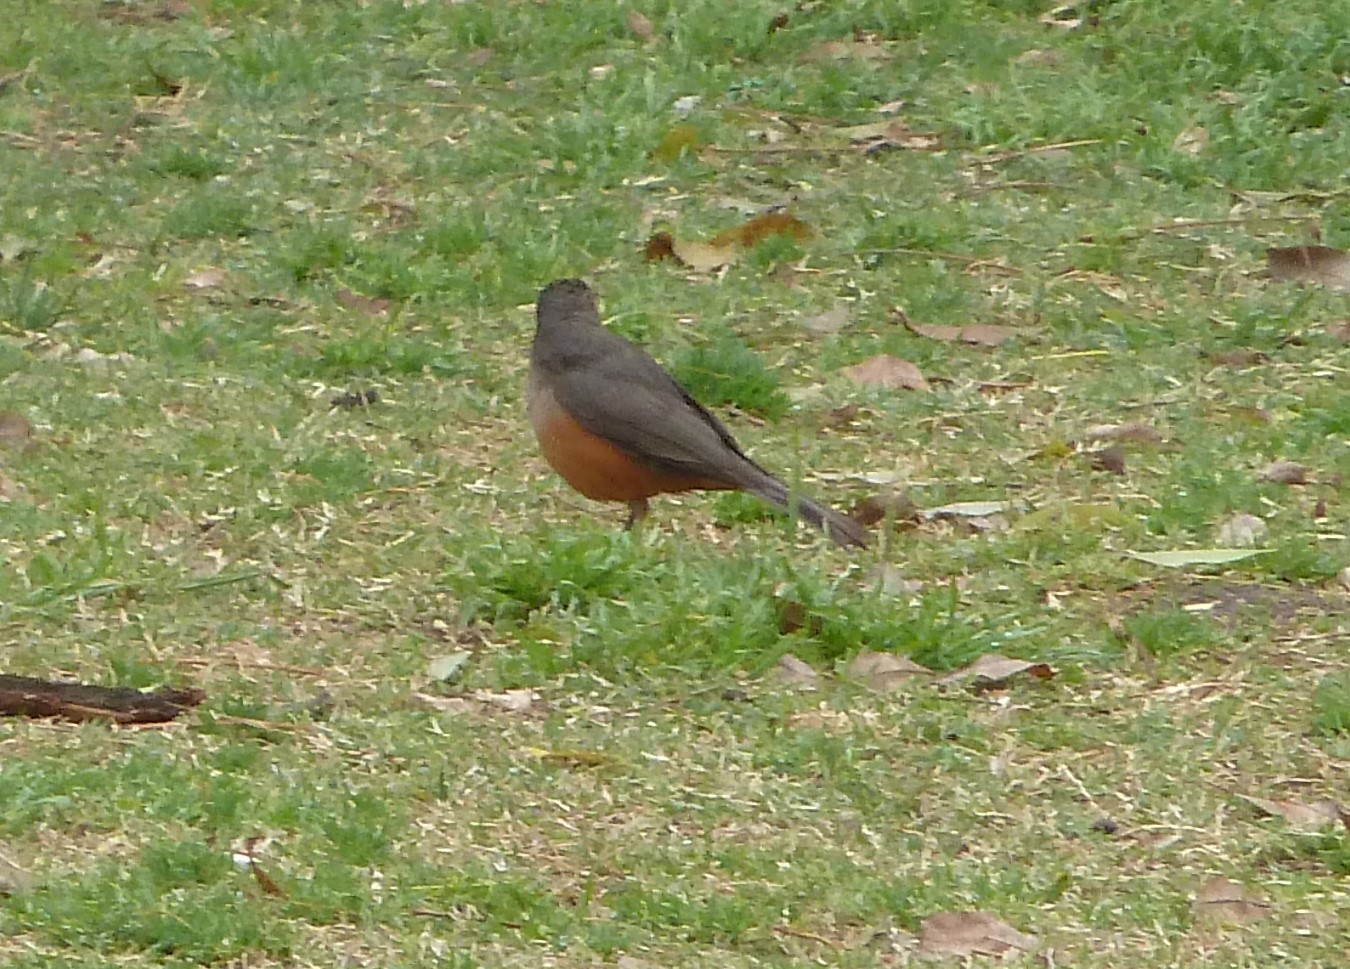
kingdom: Animalia
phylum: Chordata
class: Aves
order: Passeriformes
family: Turdidae
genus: Turdus
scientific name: Turdus rufiventris
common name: Rufous-bellied thrush
